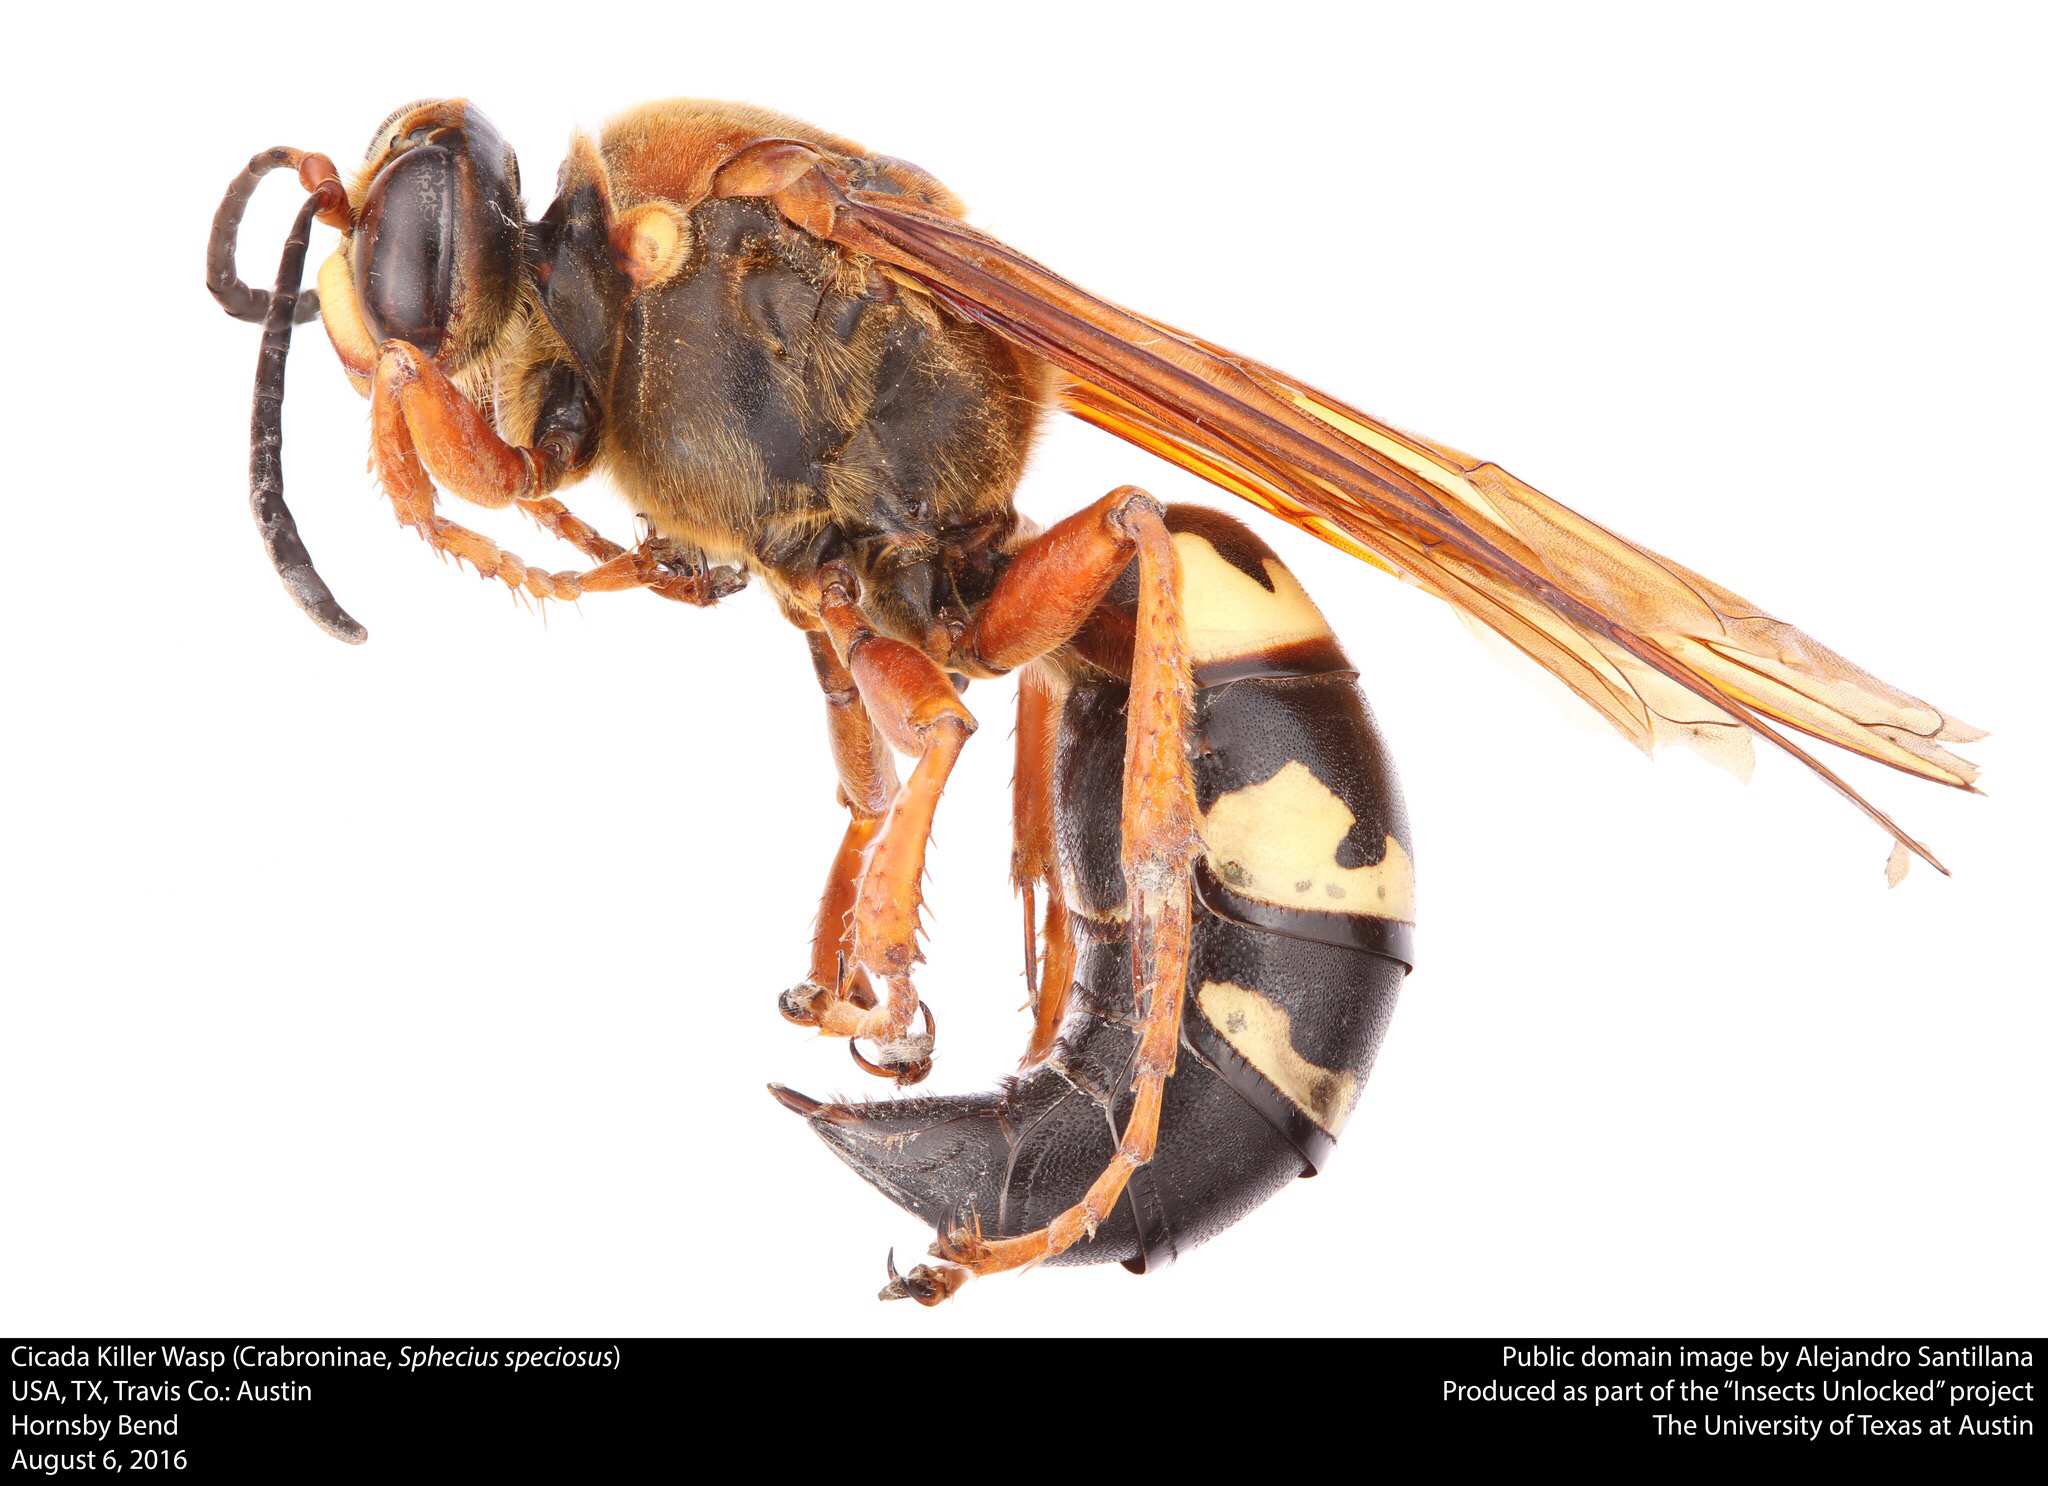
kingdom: Animalia
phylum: Arthropoda
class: Insecta
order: Hymenoptera
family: Crabronidae
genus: Sphecius
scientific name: Sphecius speciosus
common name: Cicada killer
